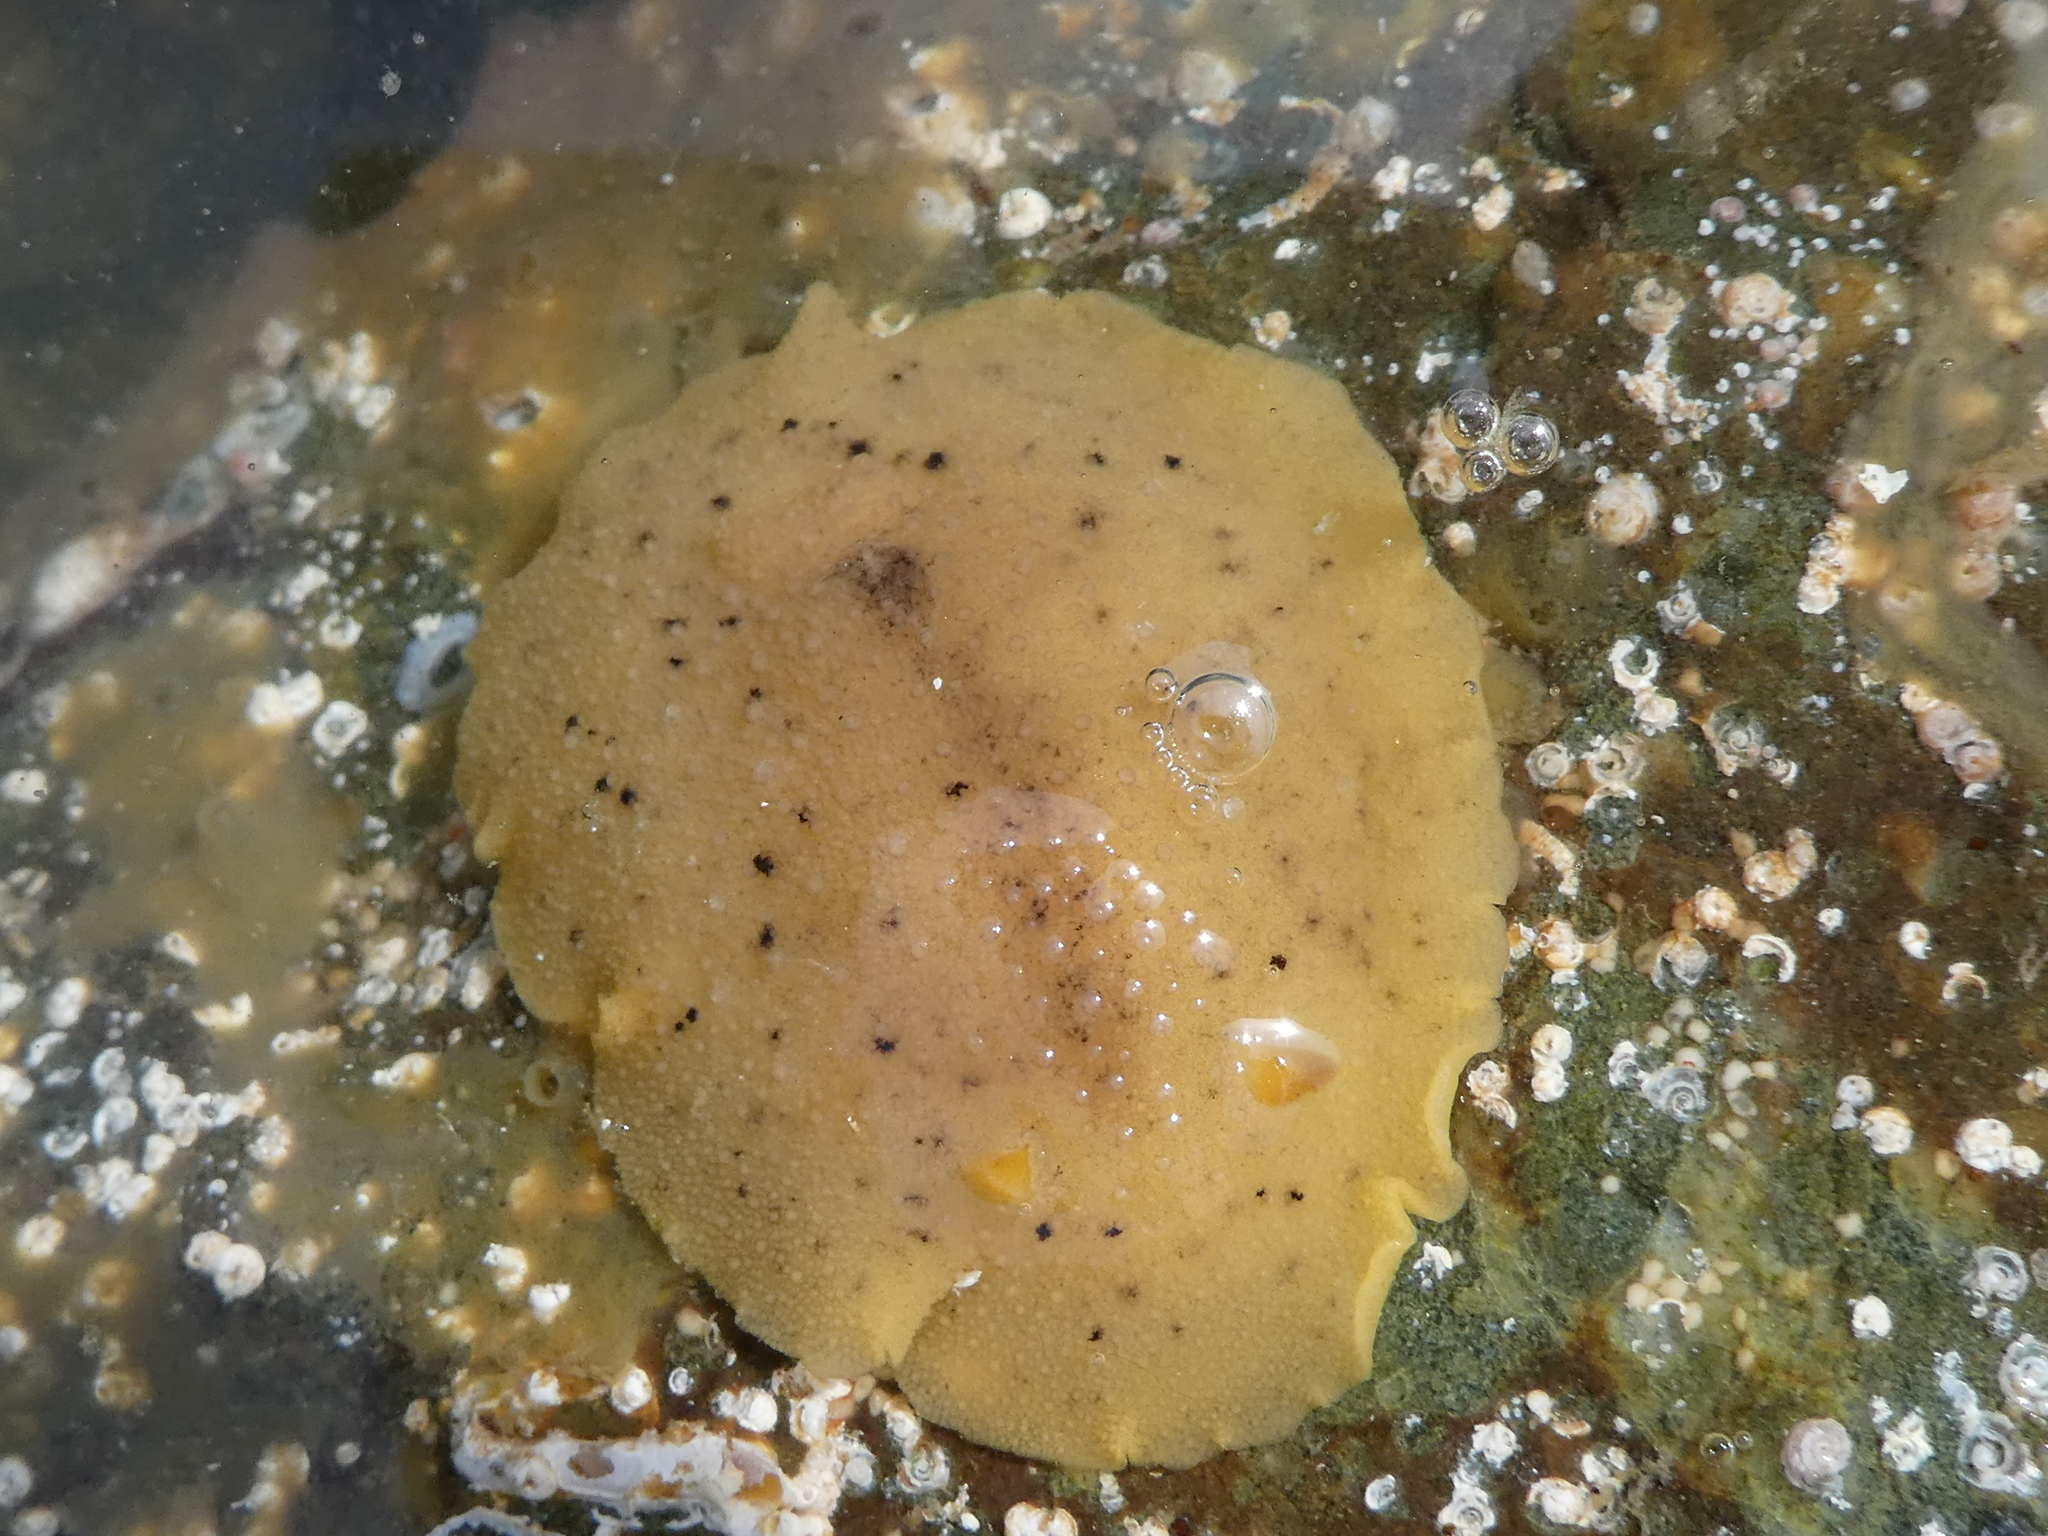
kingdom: Animalia
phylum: Mollusca
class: Gastropoda
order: Nudibranchia
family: Discodorididae
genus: Geitodoris
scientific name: Geitodoris heathi
